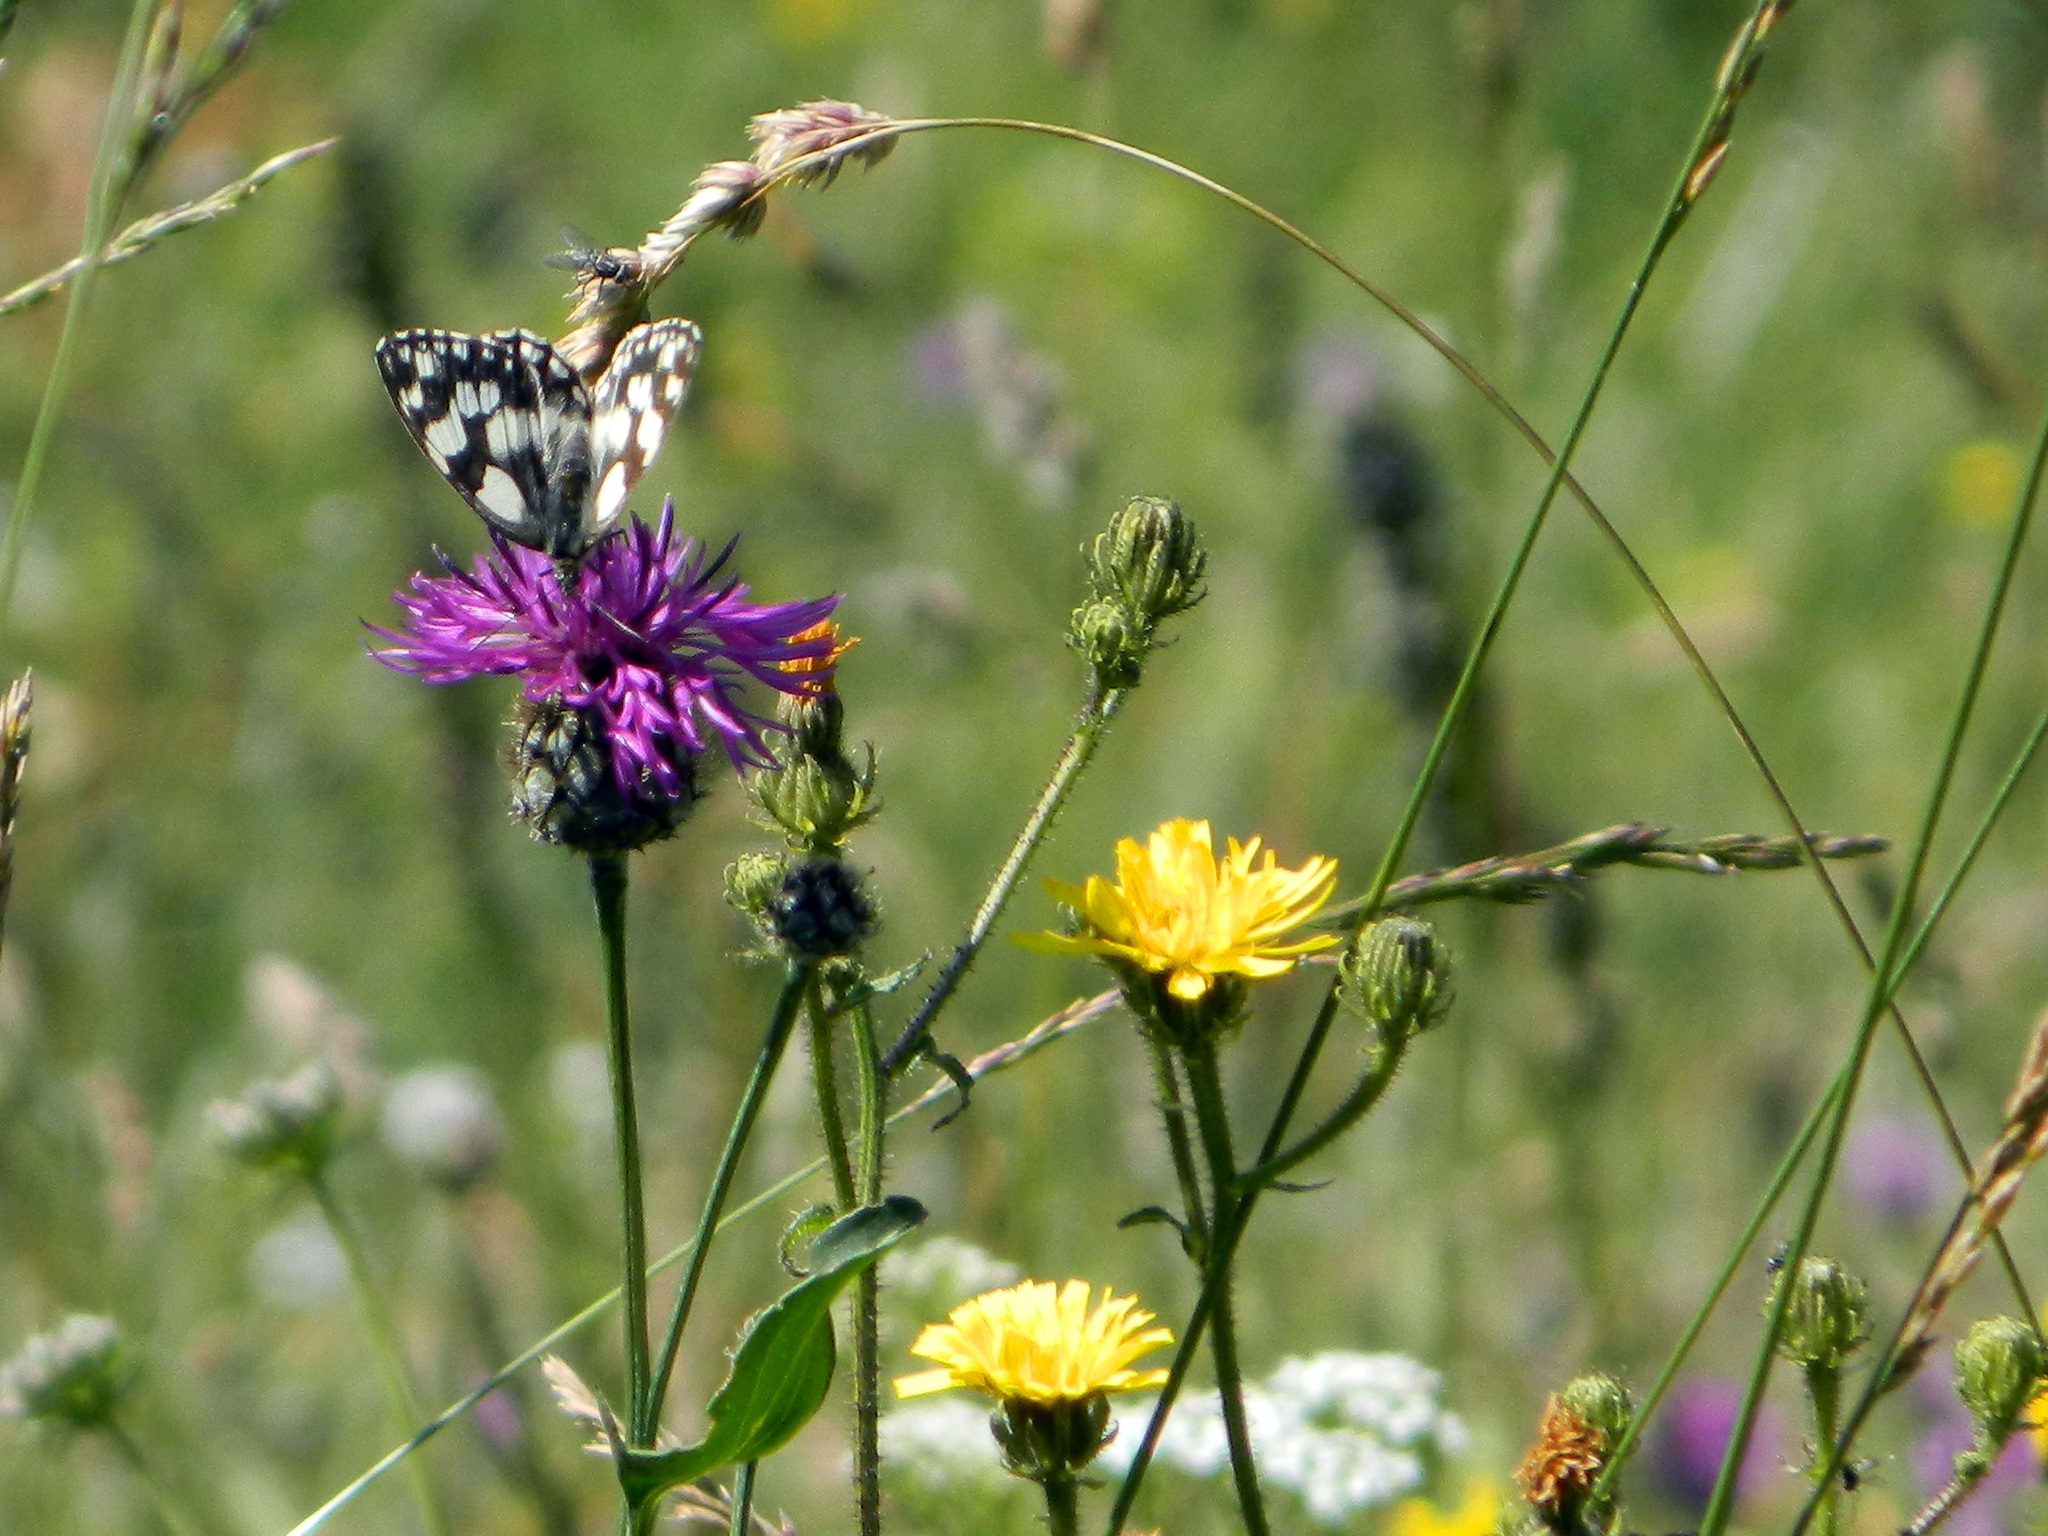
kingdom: Animalia
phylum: Arthropoda
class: Insecta
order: Lepidoptera
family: Nymphalidae
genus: Melanargia
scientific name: Melanargia galathea
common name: Marbled white
